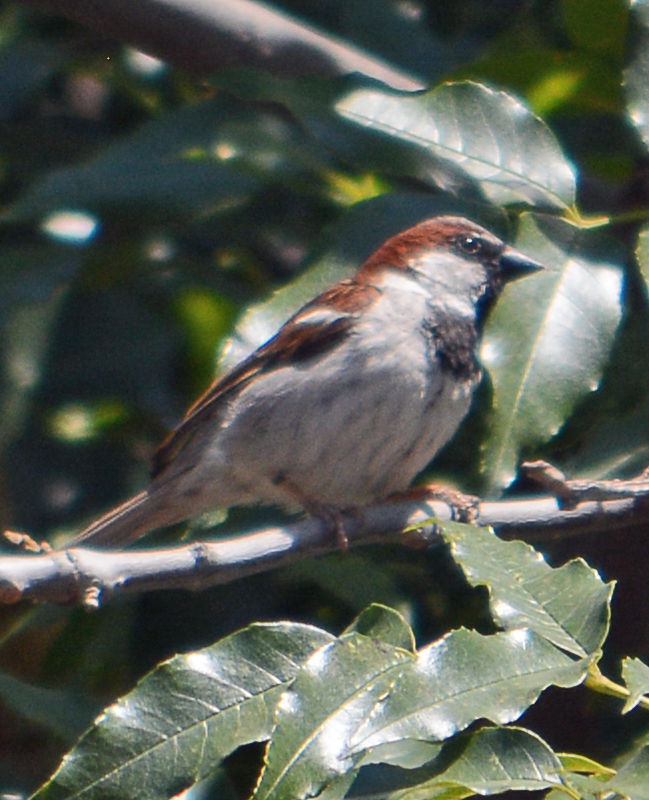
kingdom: Animalia
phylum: Chordata
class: Aves
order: Passeriformes
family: Passeridae
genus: Passer
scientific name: Passer domesticus
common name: House sparrow
